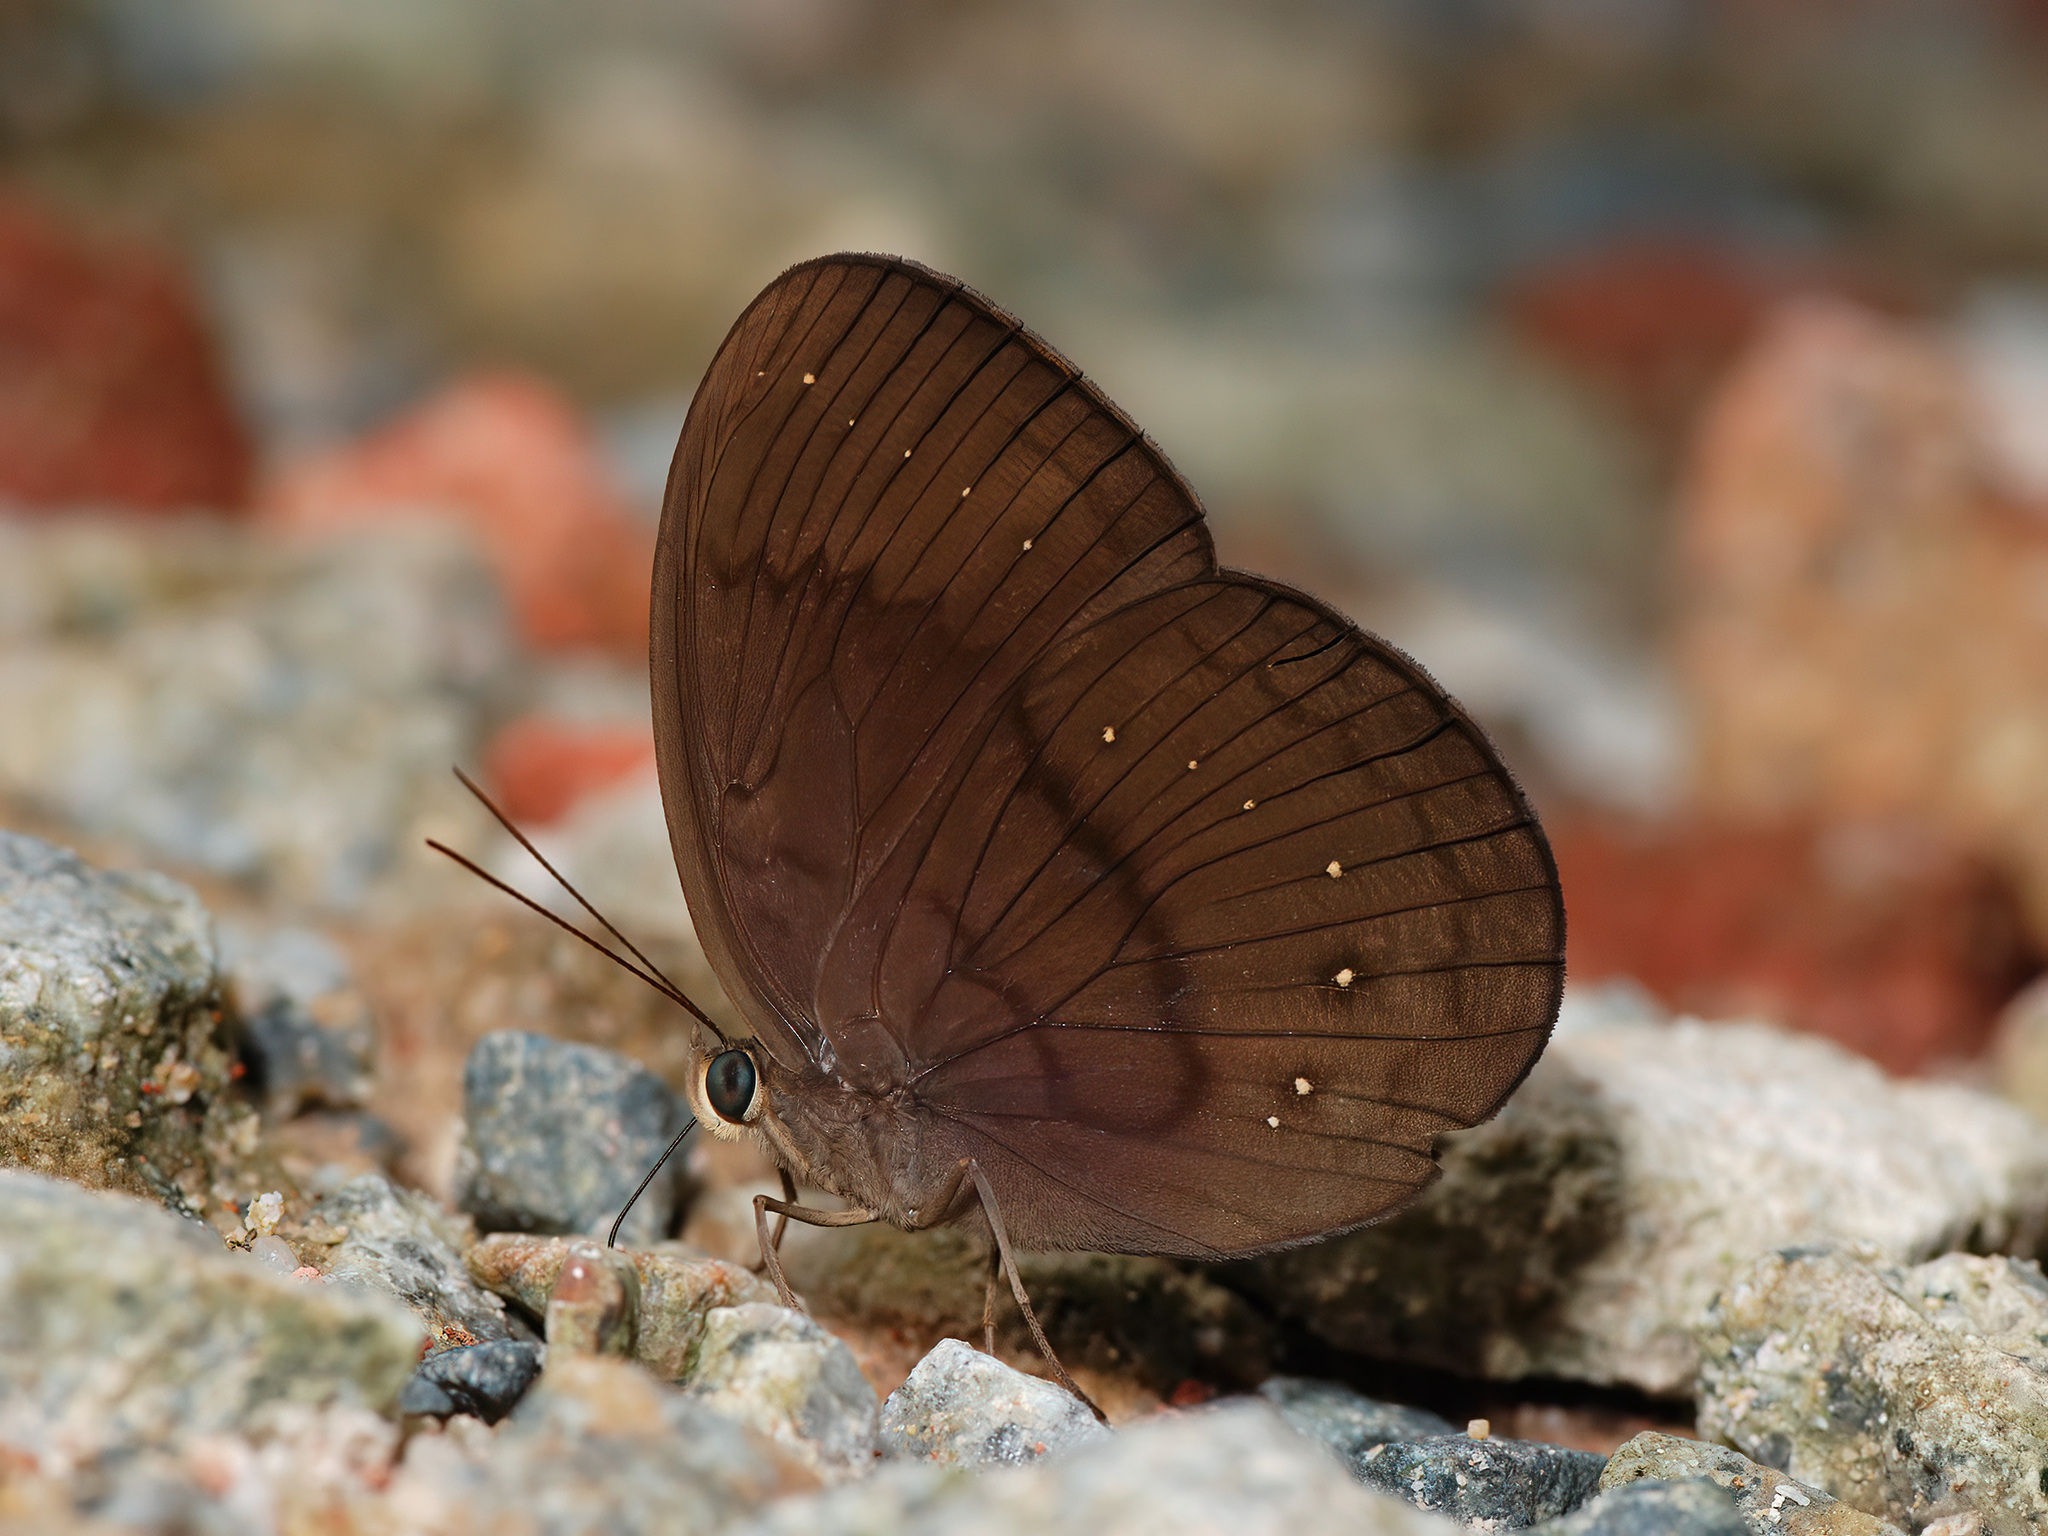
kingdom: Animalia
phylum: Arthropoda
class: Insecta
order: Lepidoptera
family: Nymphalidae
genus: Faunis
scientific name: Faunis canens
